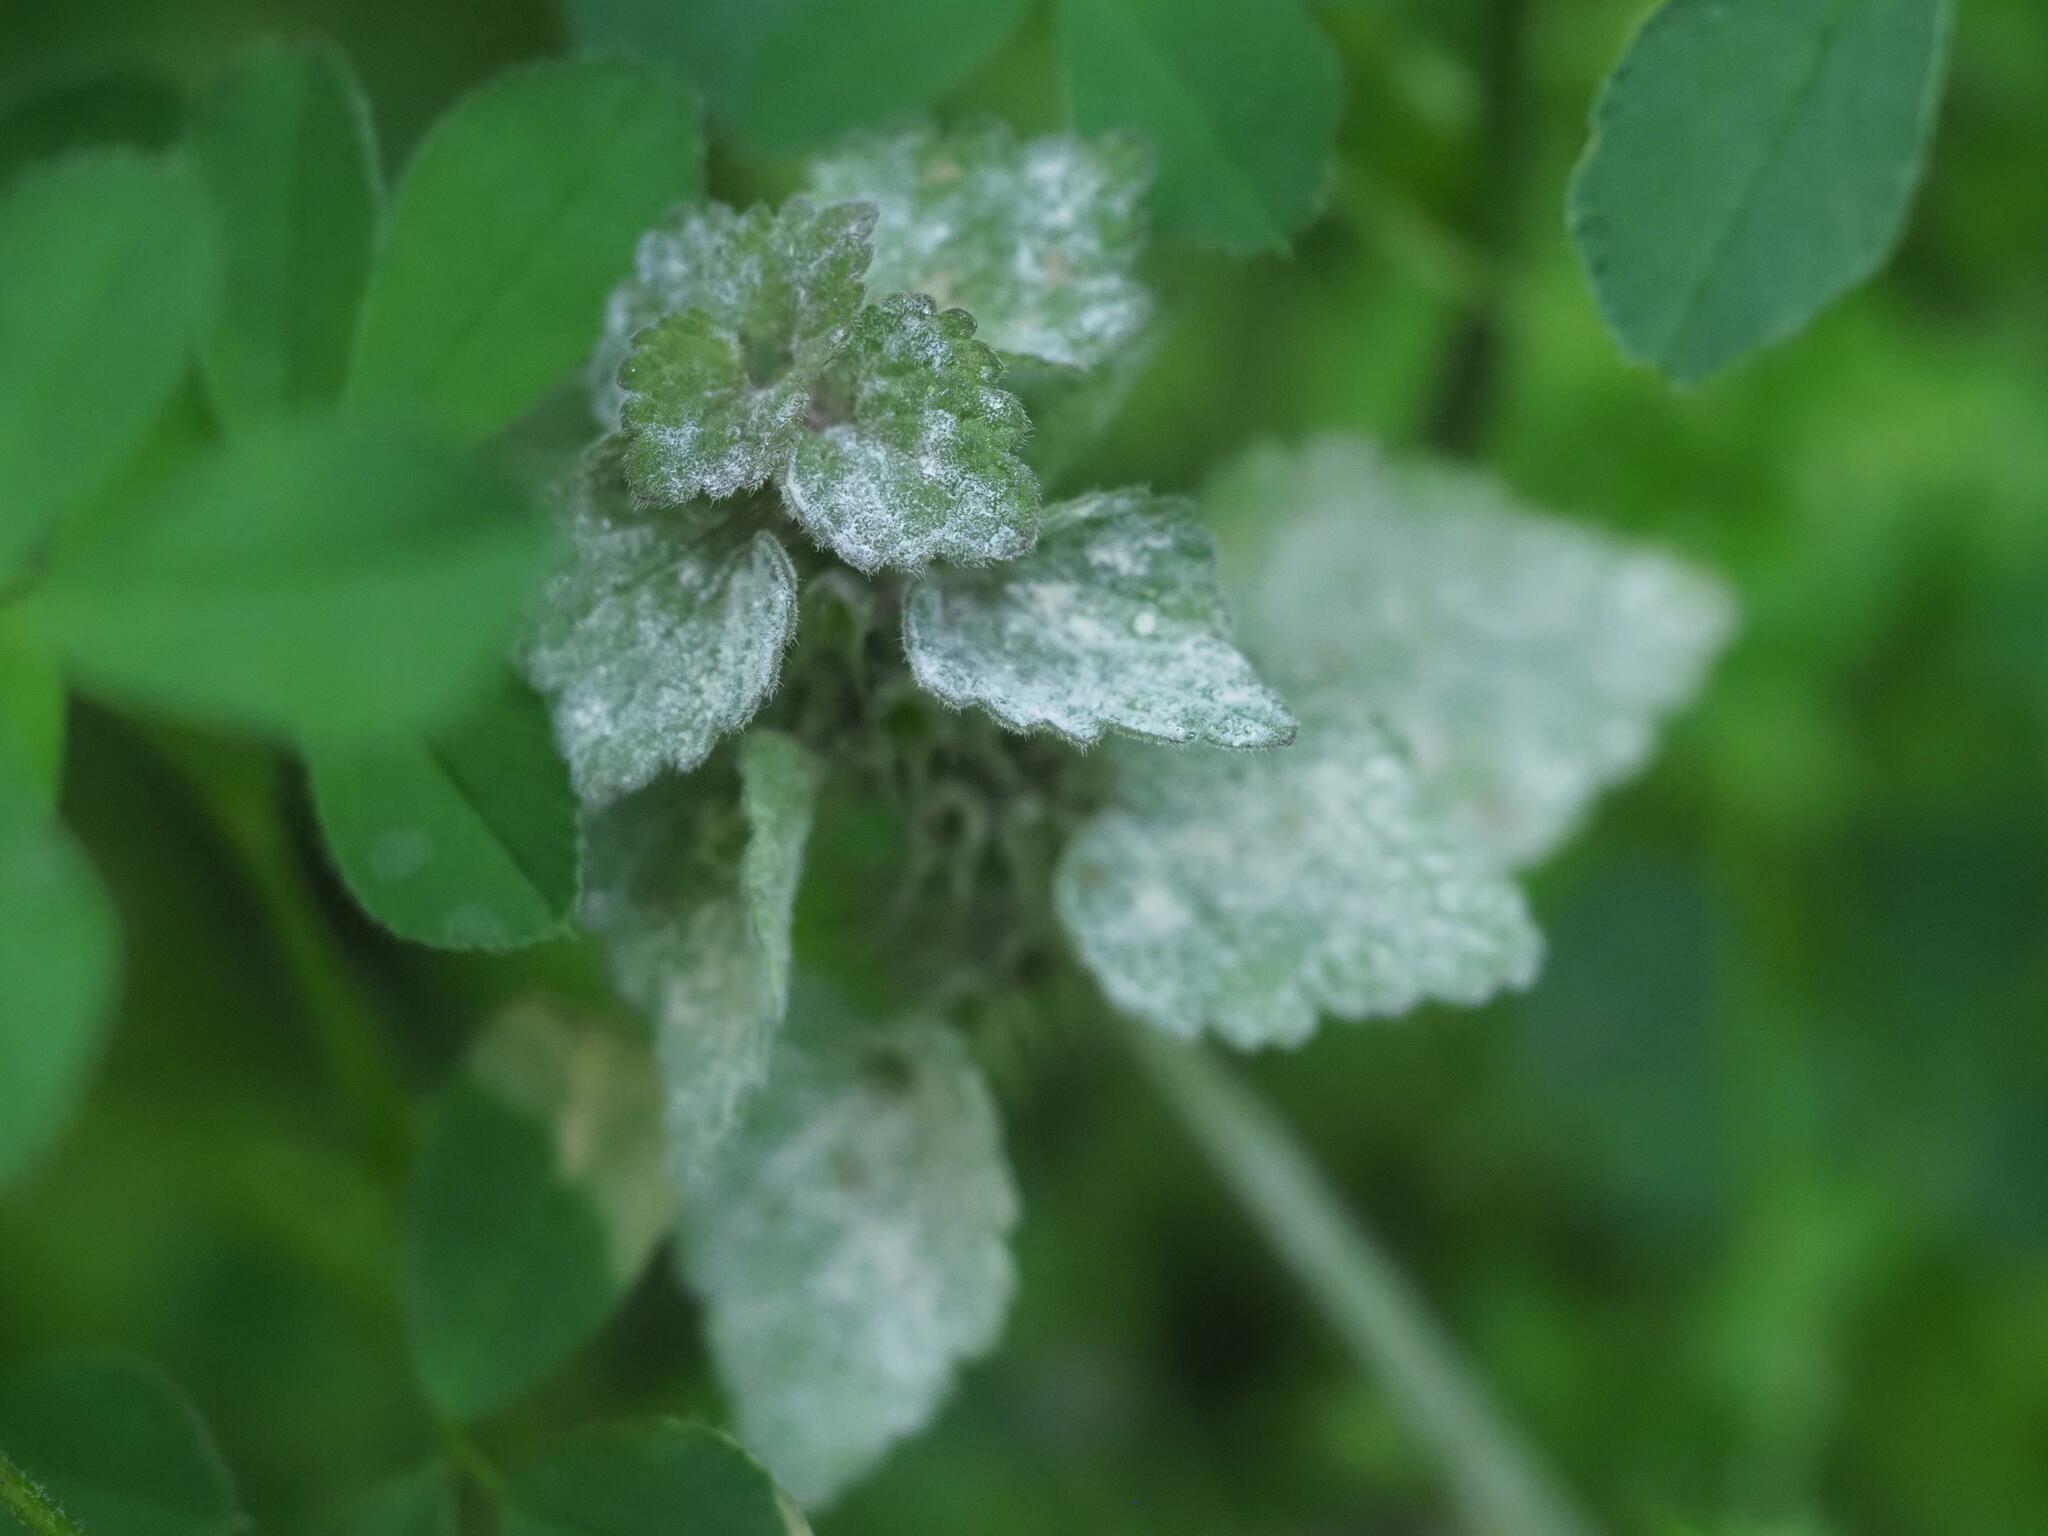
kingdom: Fungi
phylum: Ascomycota
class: Leotiomycetes
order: Helotiales
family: Erysiphaceae
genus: Neoerysiphe
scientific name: Neoerysiphe galeopsidis
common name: Mint mildew
